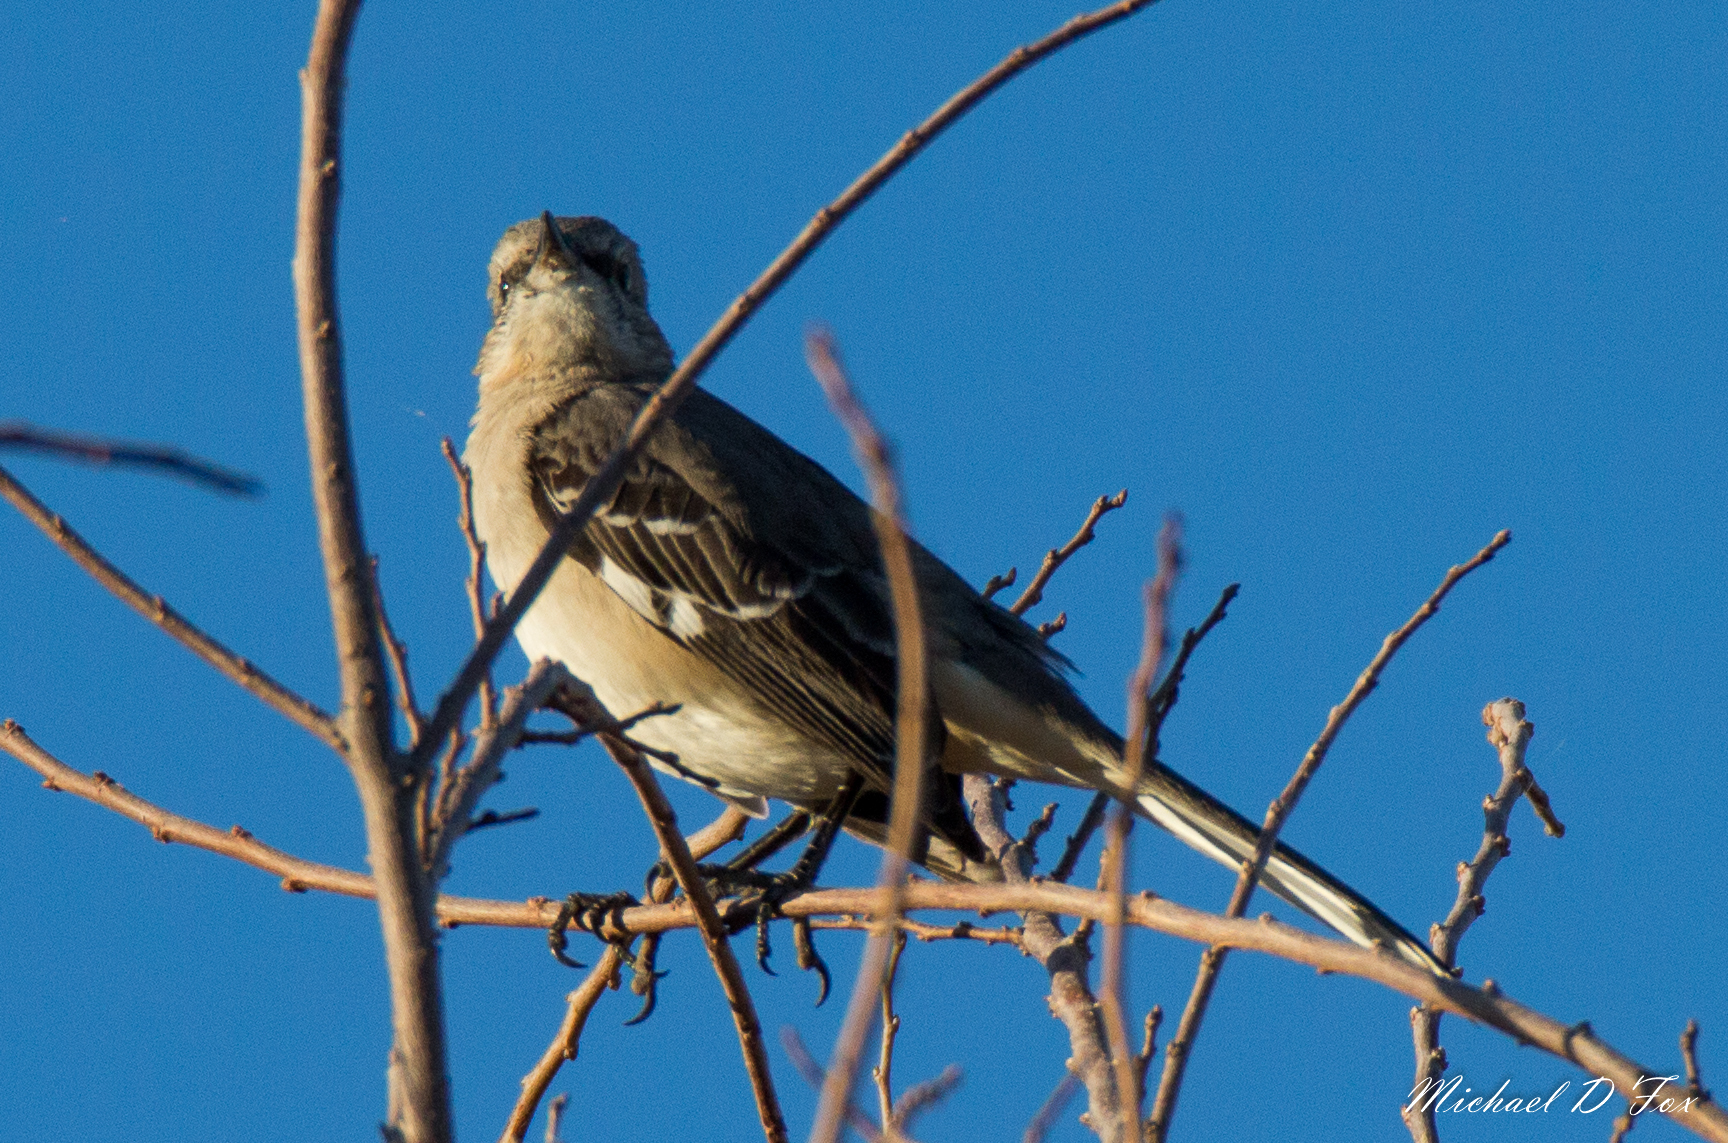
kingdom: Animalia
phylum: Chordata
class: Aves
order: Passeriformes
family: Mimidae
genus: Mimus
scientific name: Mimus polyglottos
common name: Northern mockingbird
